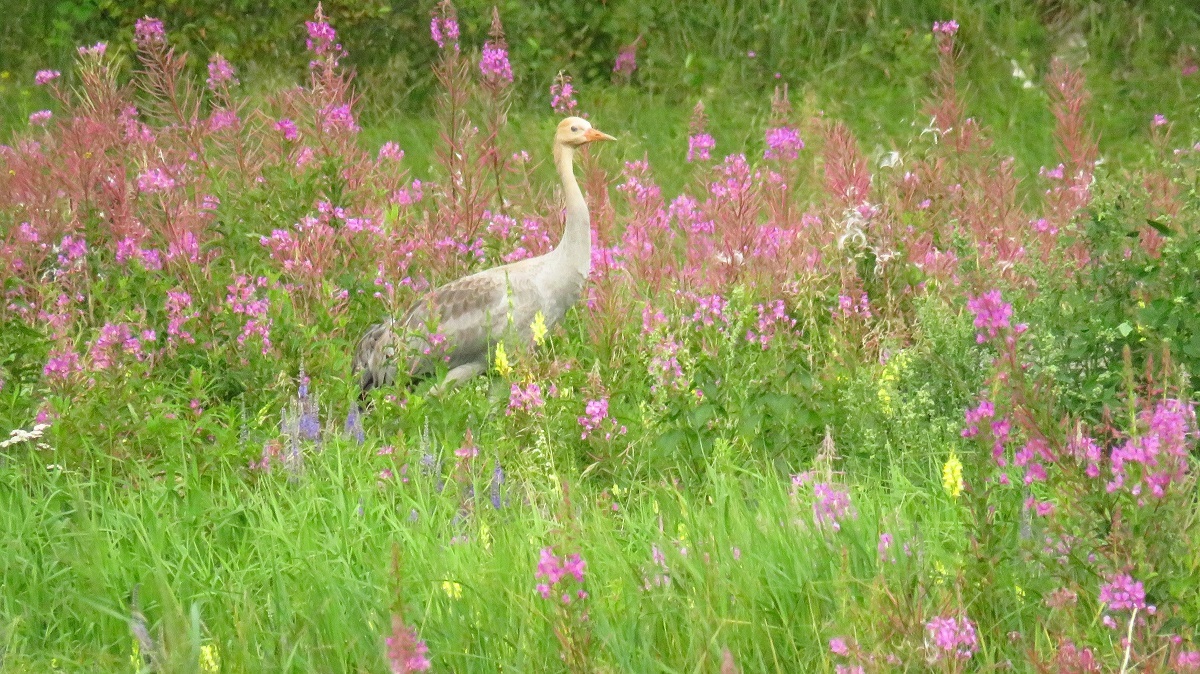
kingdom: Animalia
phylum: Chordata
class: Aves
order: Gruiformes
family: Gruidae
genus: Grus
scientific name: Grus grus
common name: Common crane
